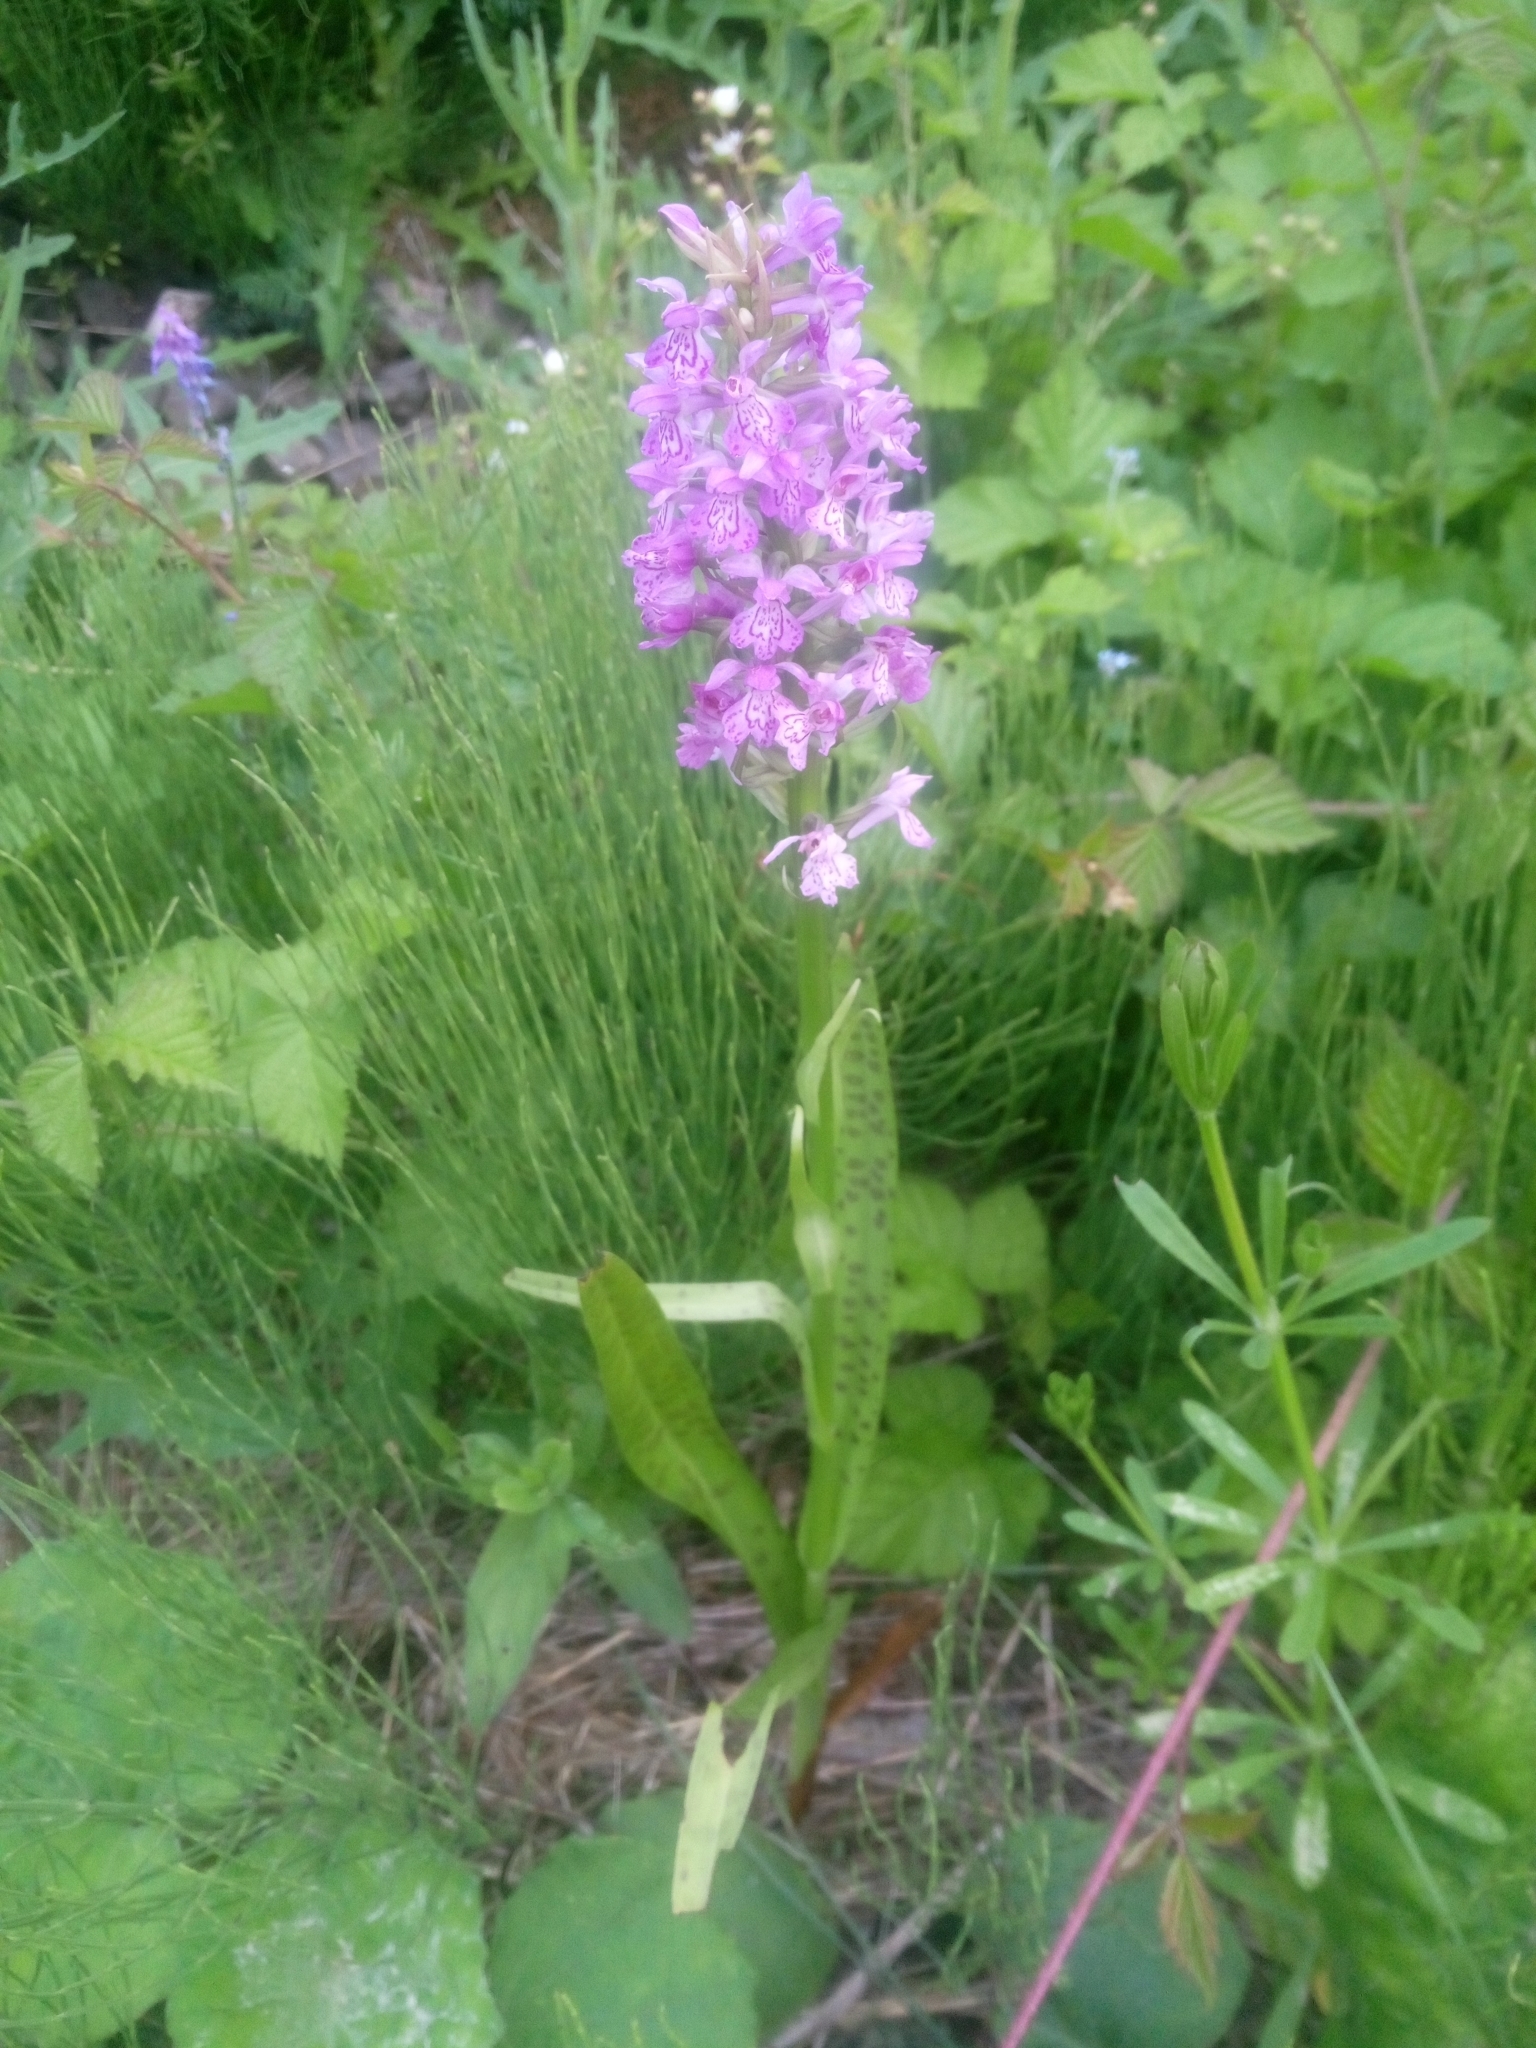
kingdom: Plantae
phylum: Tracheophyta
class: Liliopsida
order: Asparagales
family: Orchidaceae
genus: Dactylorhiza
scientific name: Dactylorhiza majalis
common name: Marsh orchid
